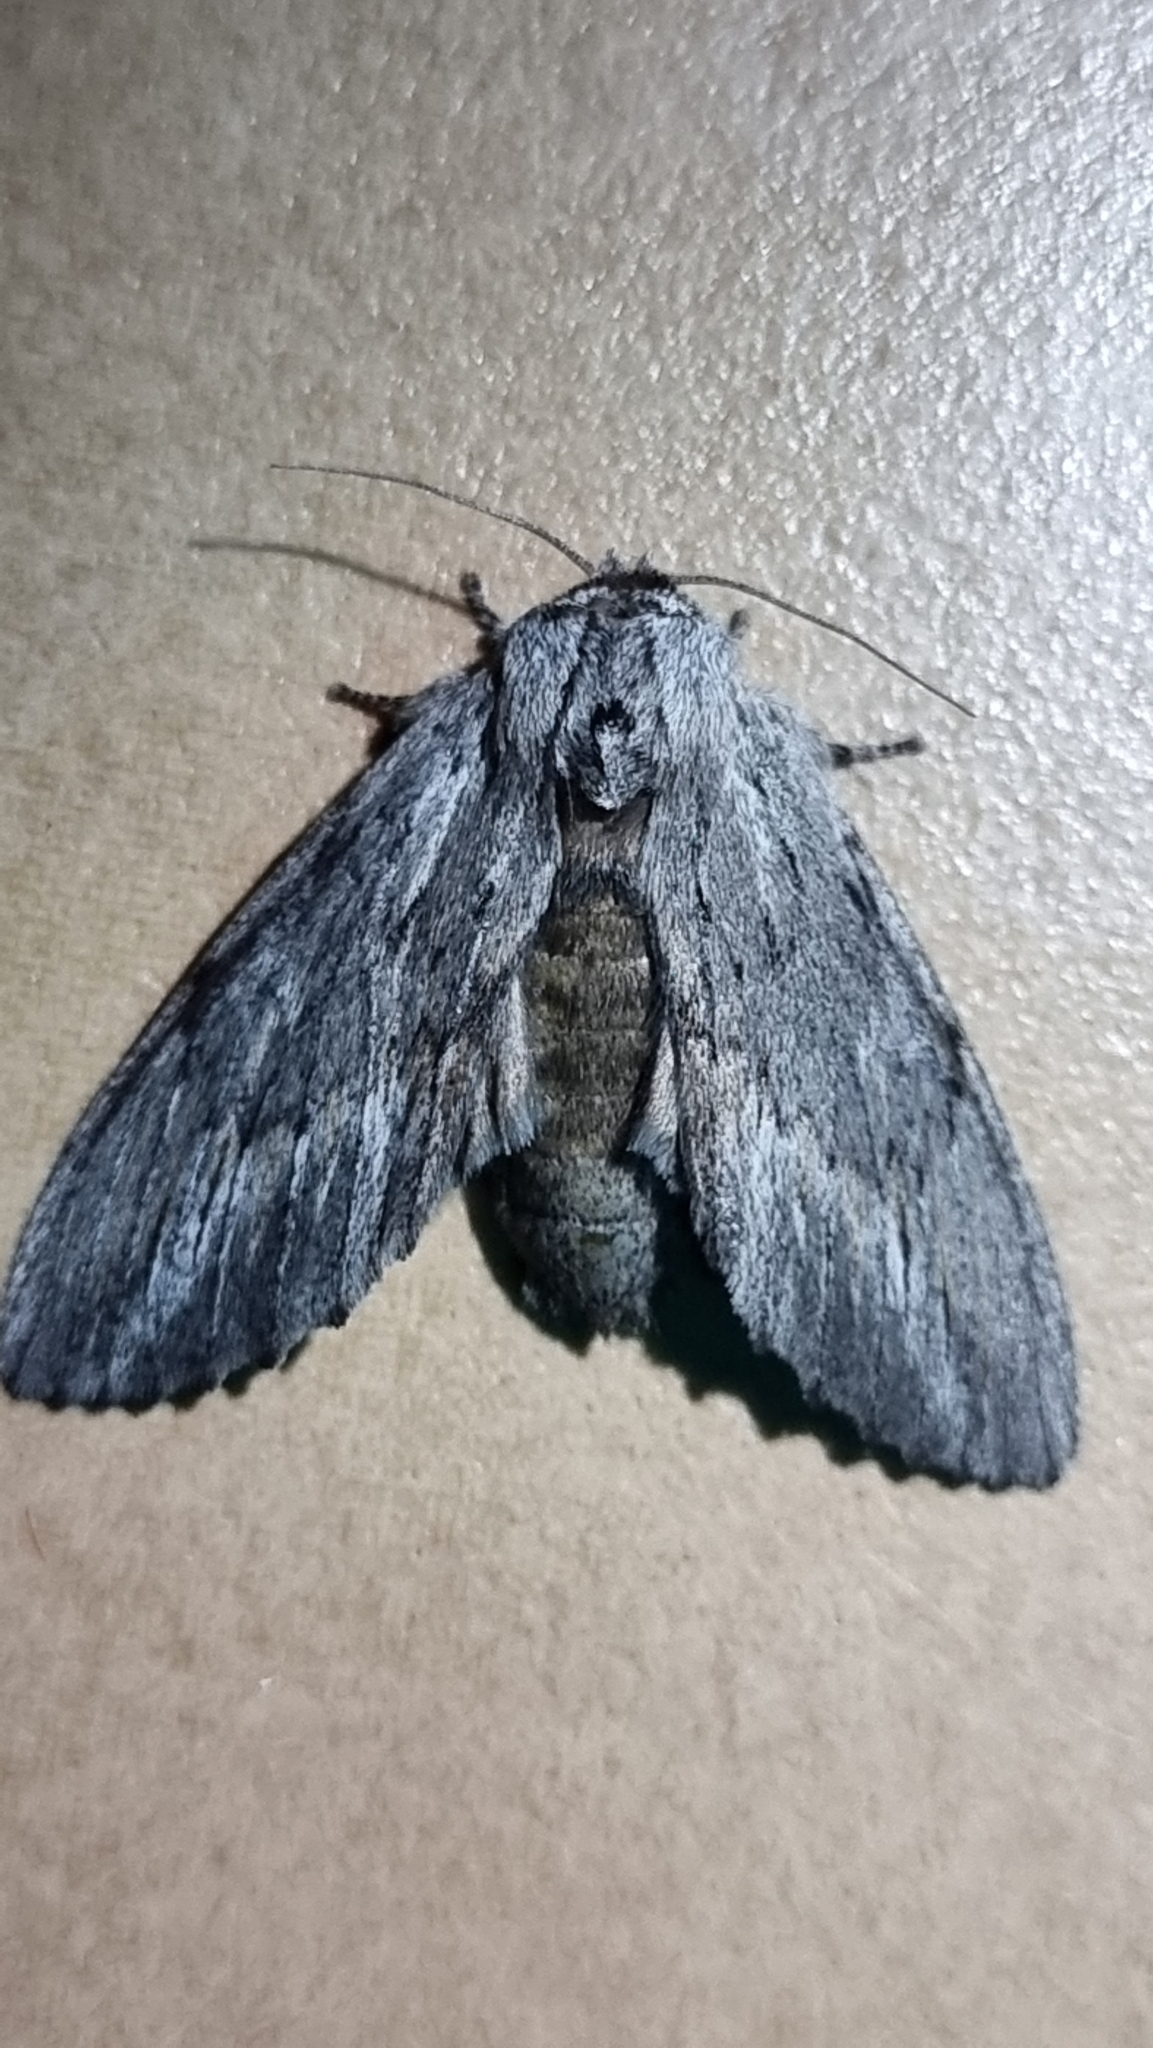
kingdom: Animalia
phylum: Arthropoda
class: Insecta
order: Lepidoptera
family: Notodontidae
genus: Destolmia
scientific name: Destolmia lineata
